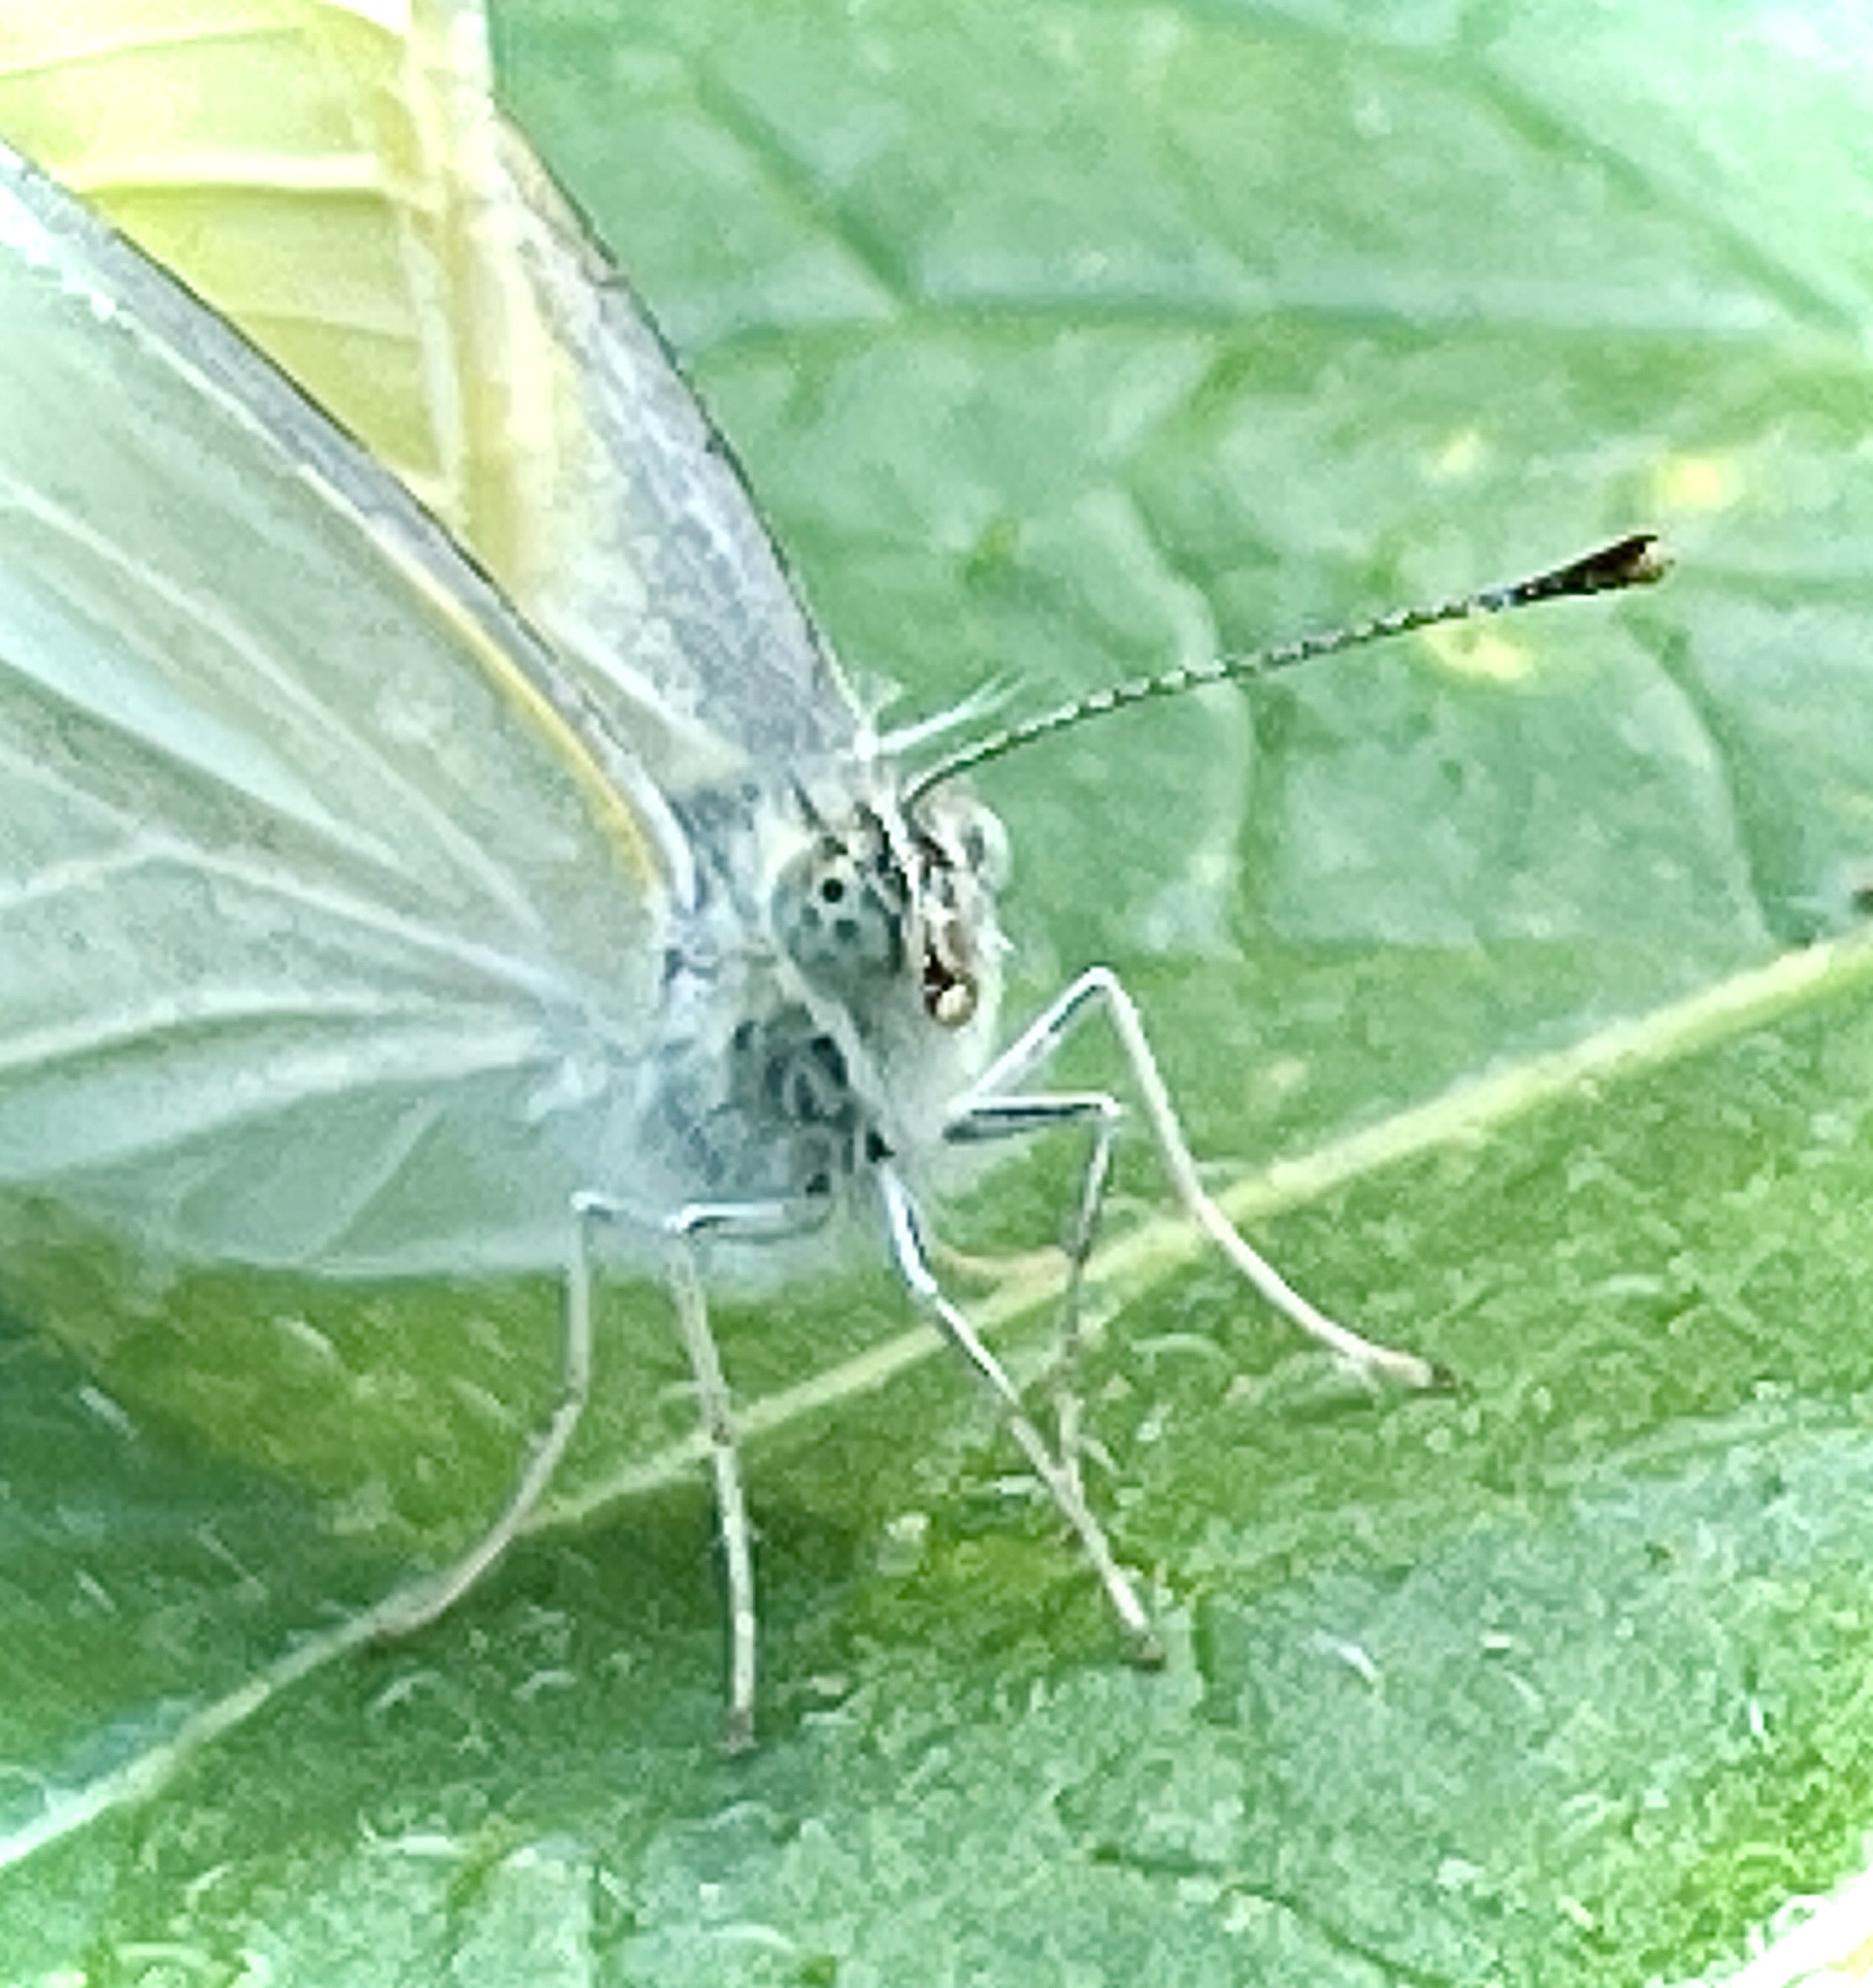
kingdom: Animalia
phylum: Arthropoda
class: Insecta
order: Lepidoptera
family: Pieridae
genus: Pieris
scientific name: Pieris rapae
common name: Small white
